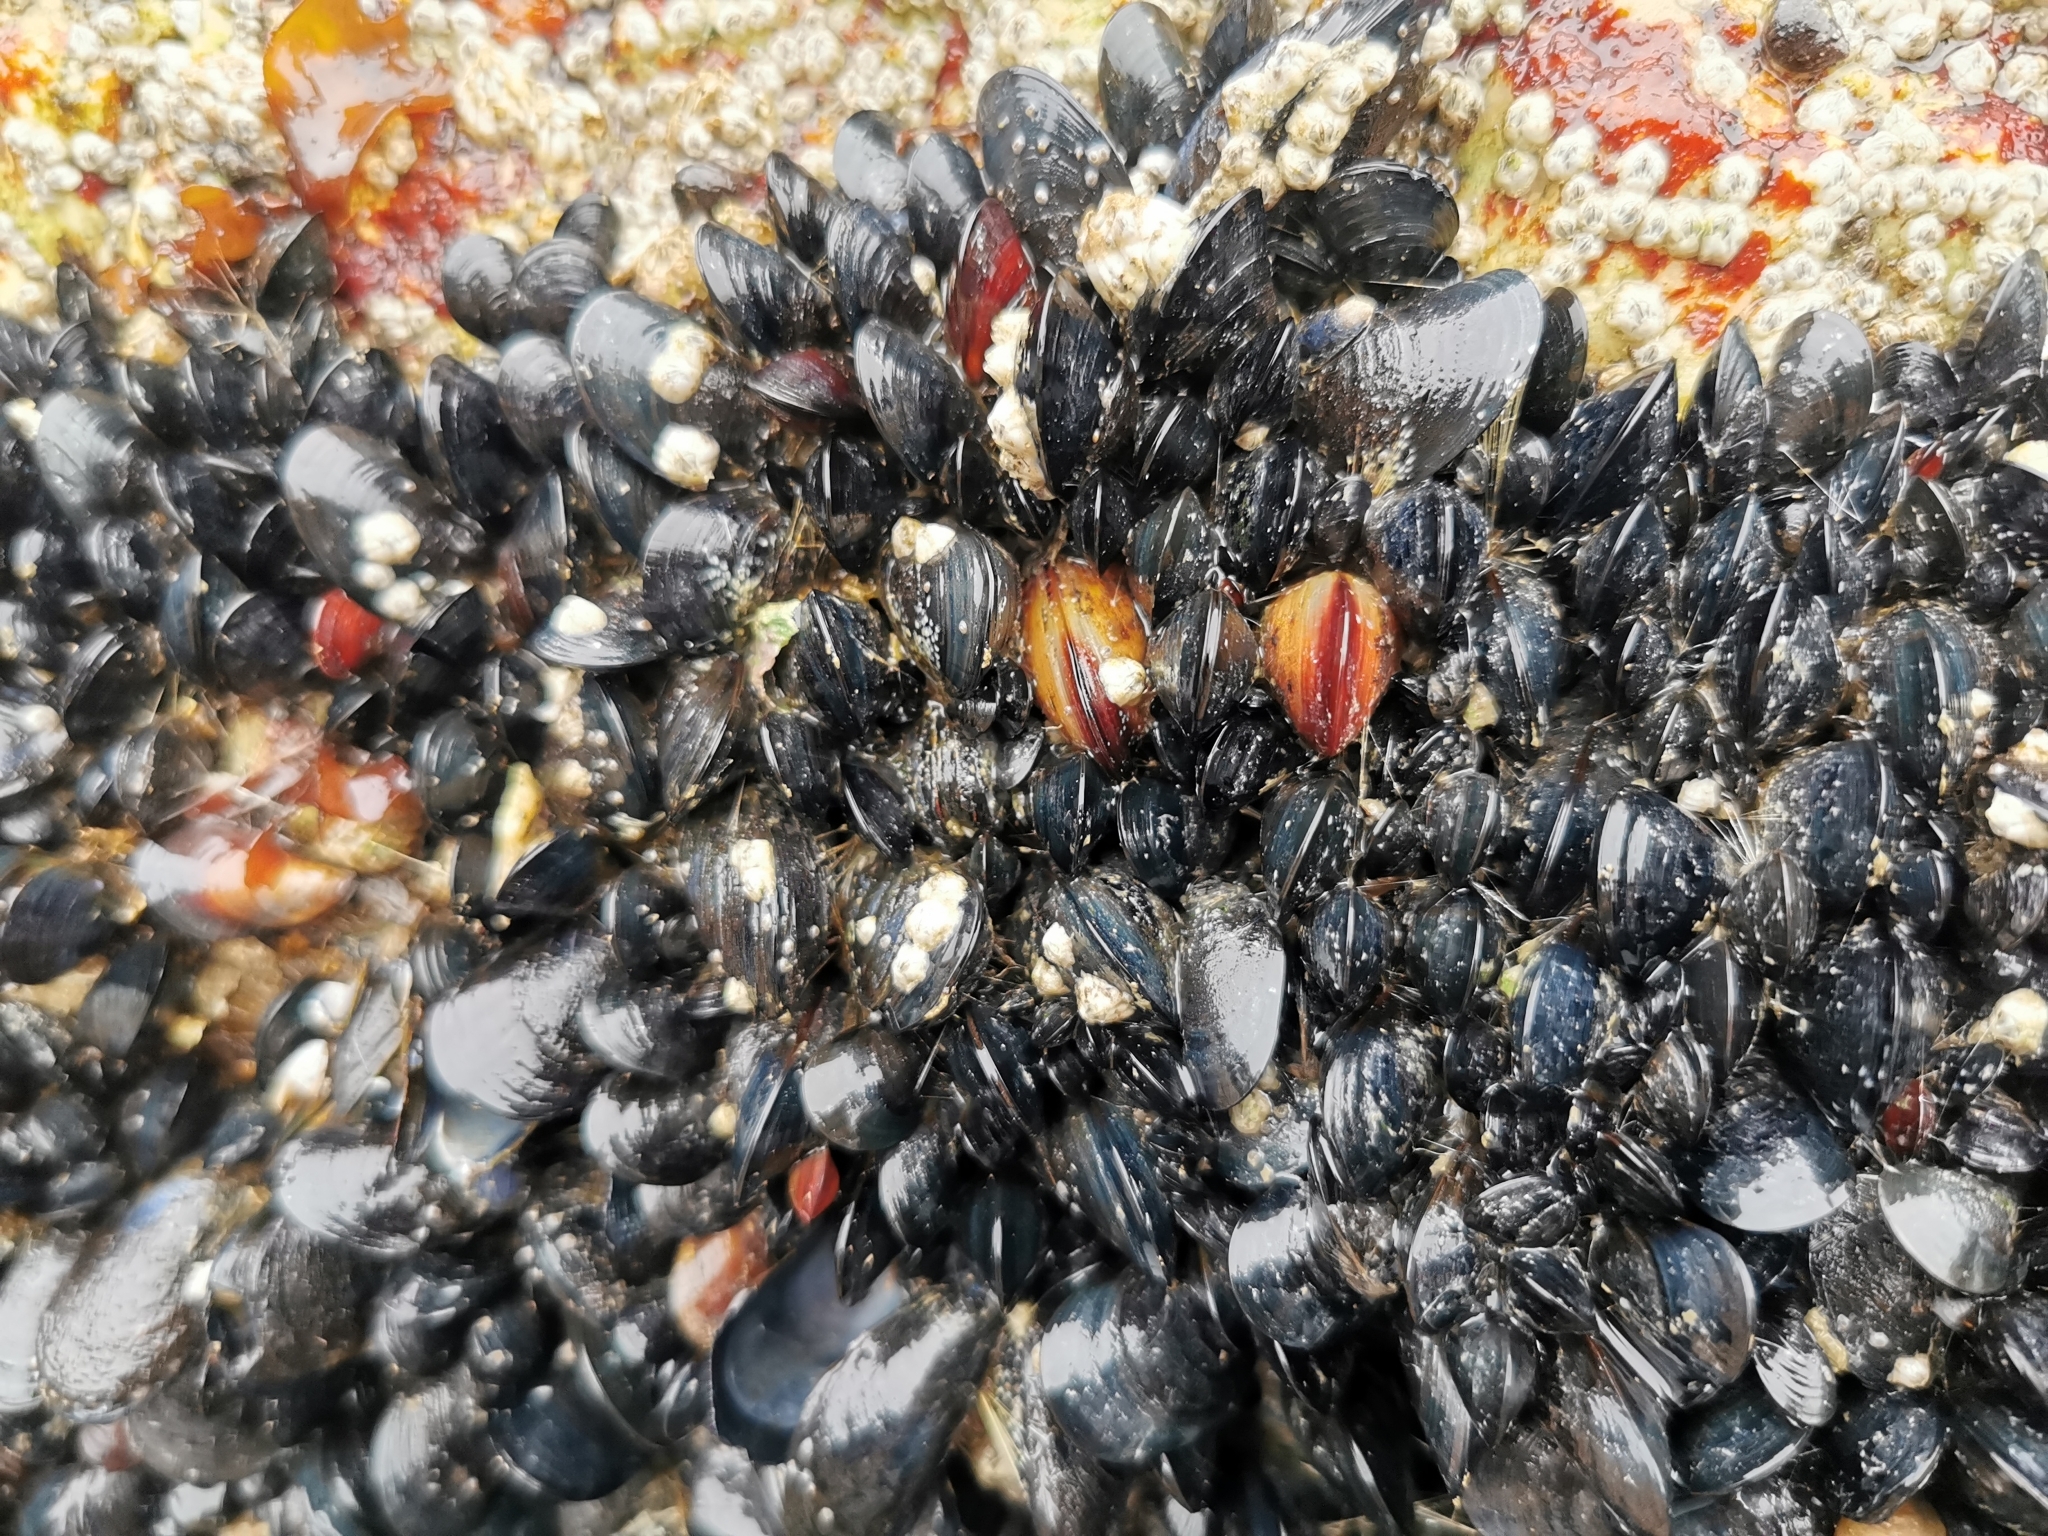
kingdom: Animalia
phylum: Mollusca
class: Bivalvia
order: Mytilida
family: Mytilidae
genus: Mytilus
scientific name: Mytilus
